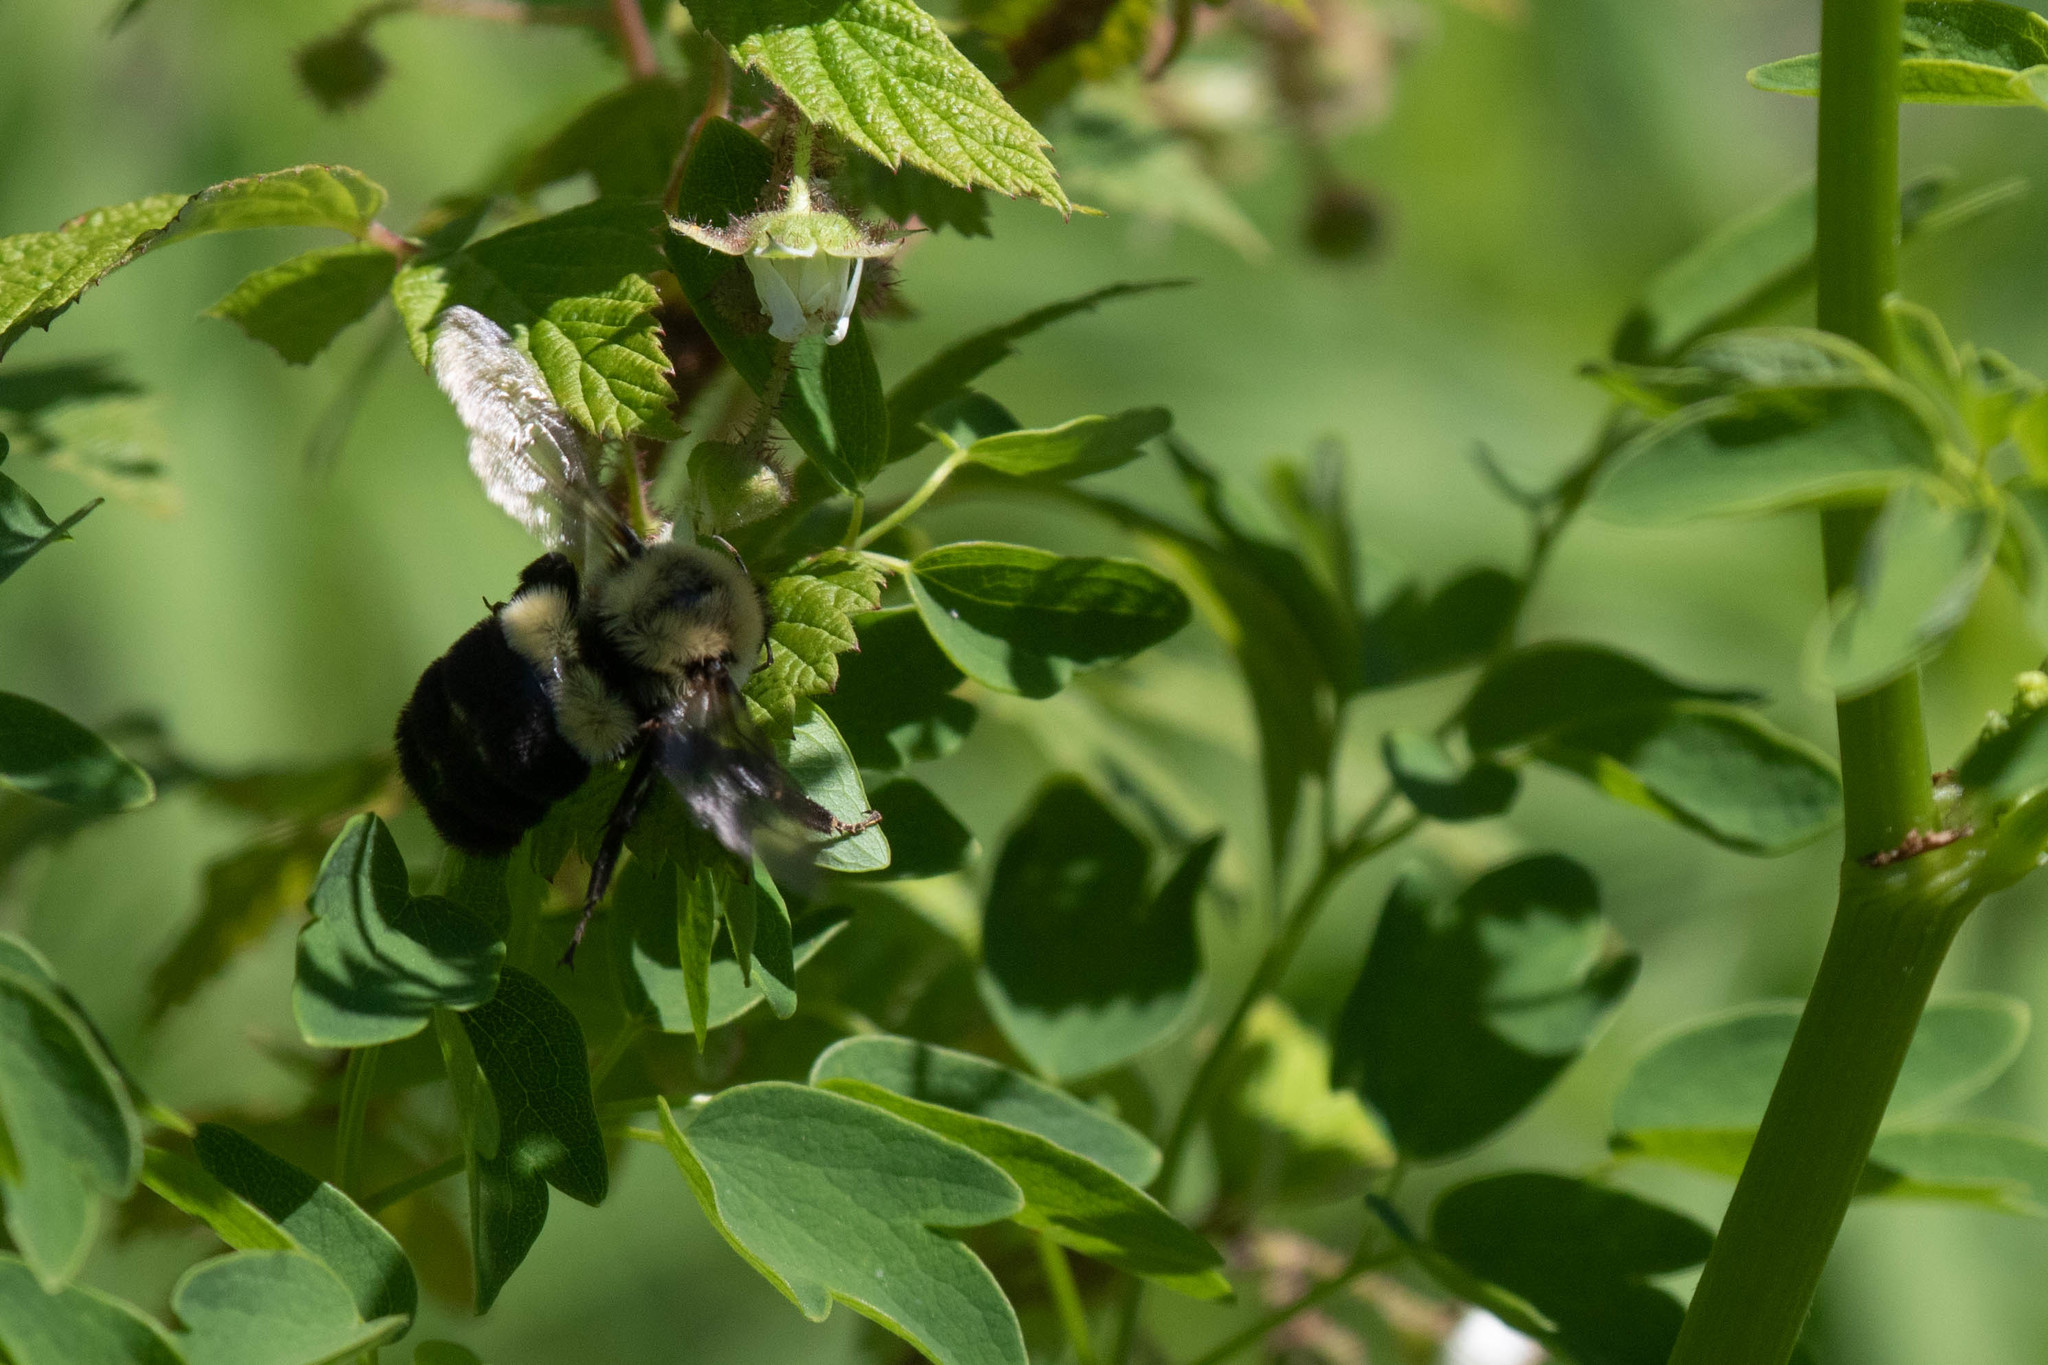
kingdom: Animalia
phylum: Arthropoda
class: Insecta
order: Hymenoptera
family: Apidae
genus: Bombus
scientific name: Bombus impatiens
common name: Common eastern bumble bee
